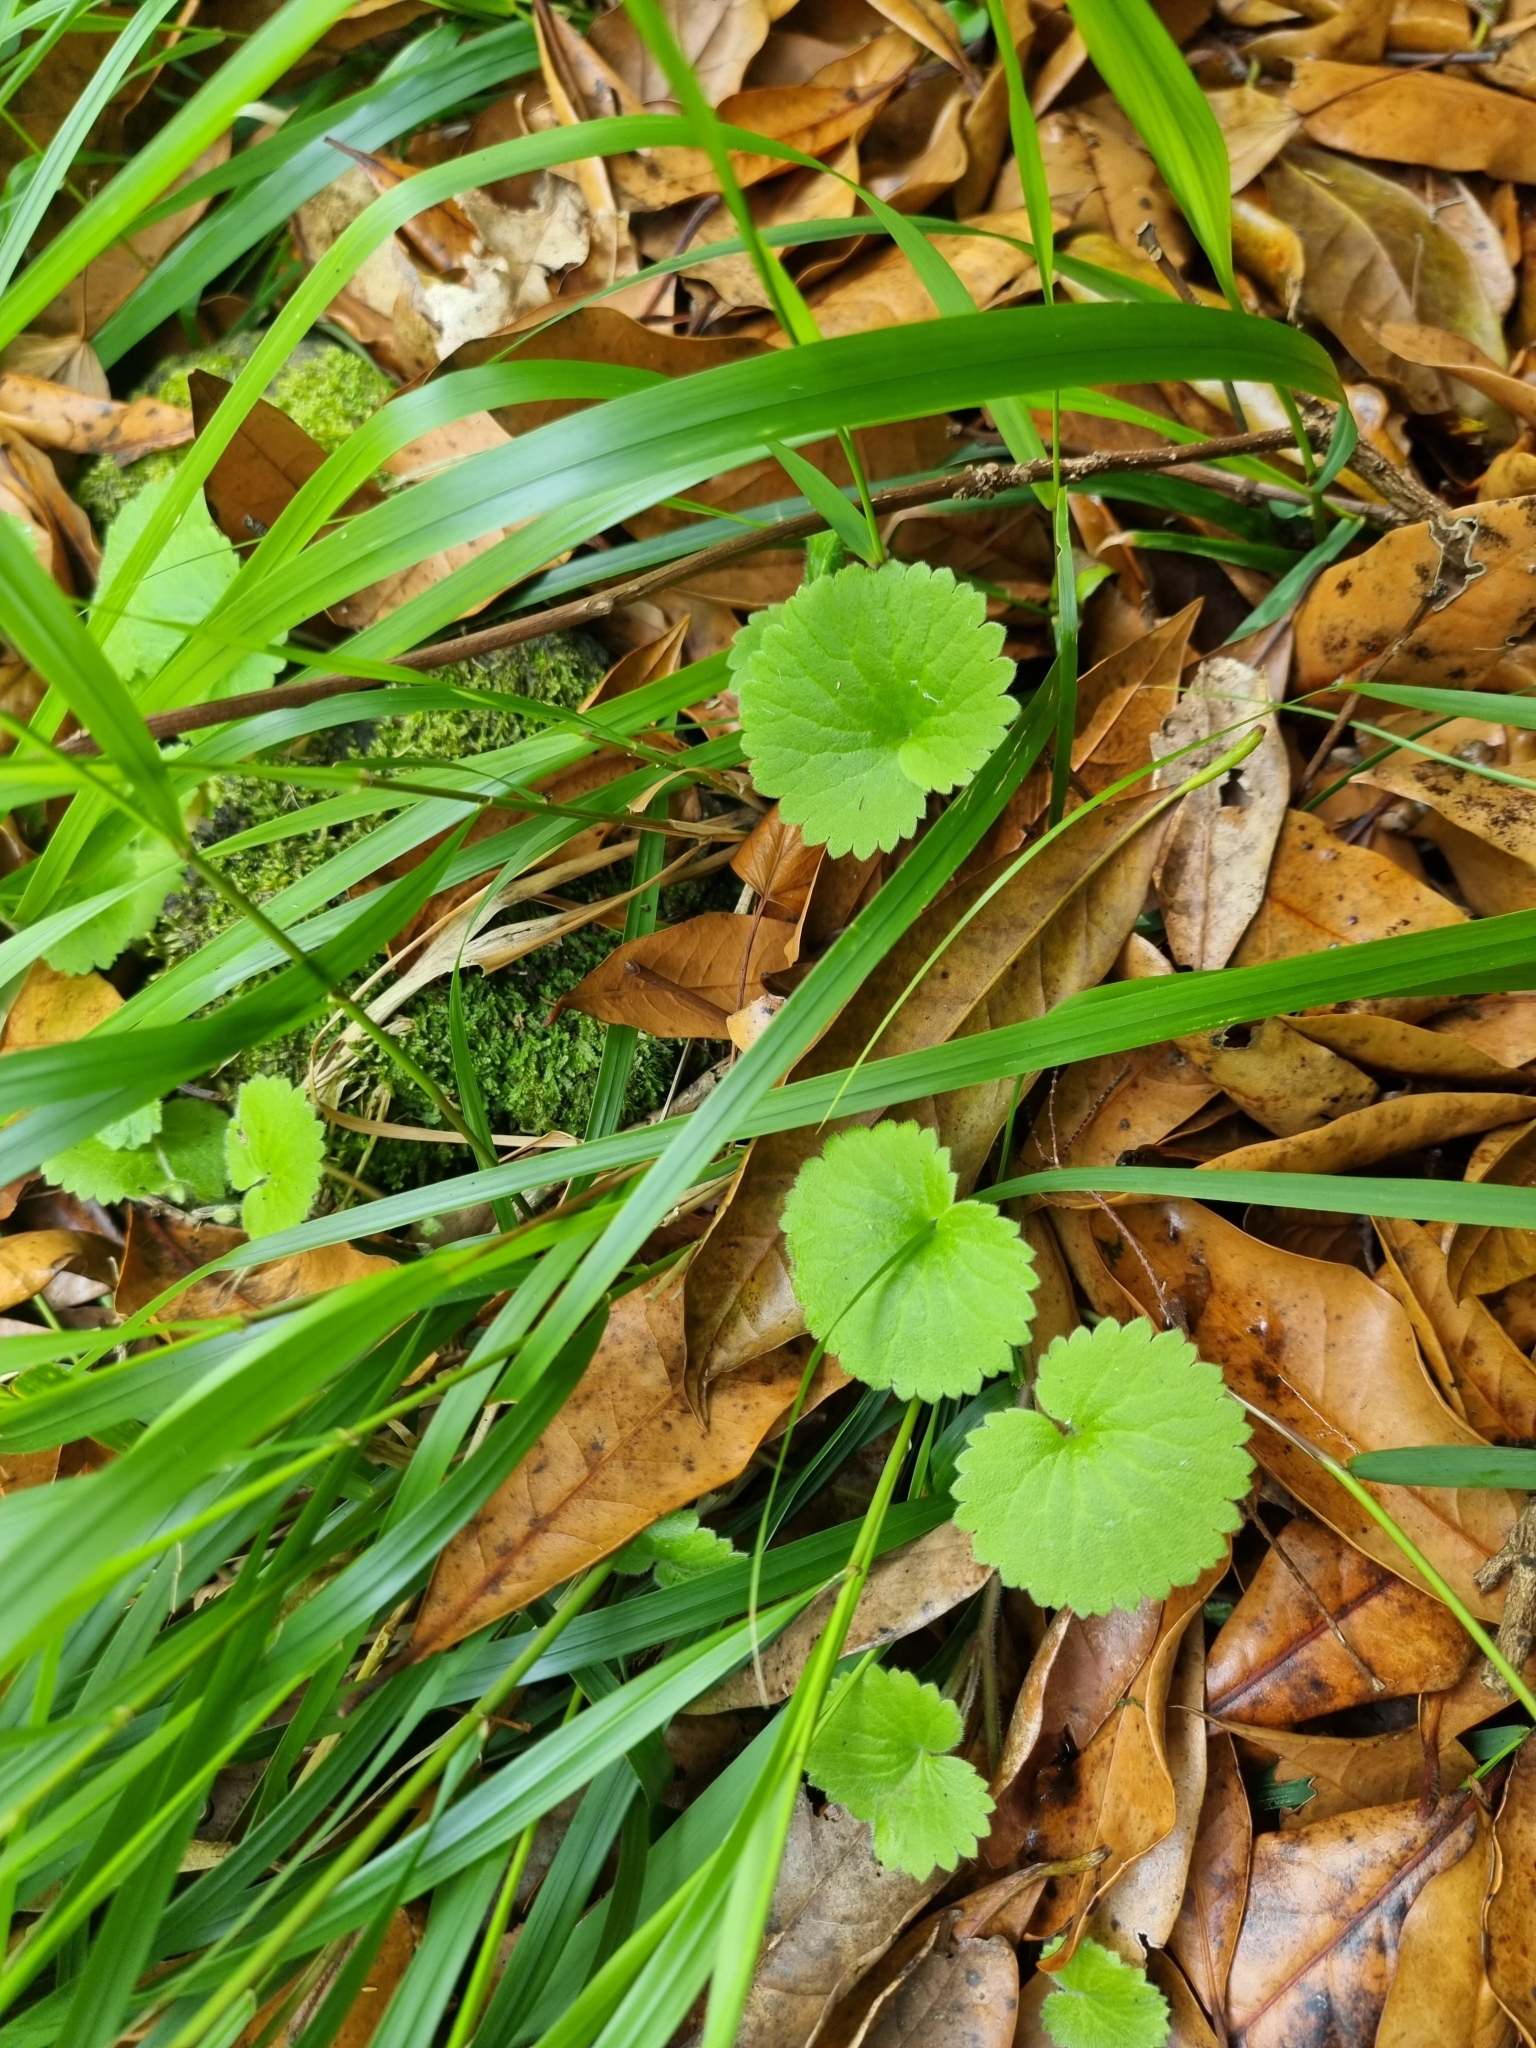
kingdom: Plantae
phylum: Tracheophyta
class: Magnoliopsida
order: Lamiales
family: Plantaginaceae
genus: Sibthorpia
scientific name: Sibthorpia peregrina
